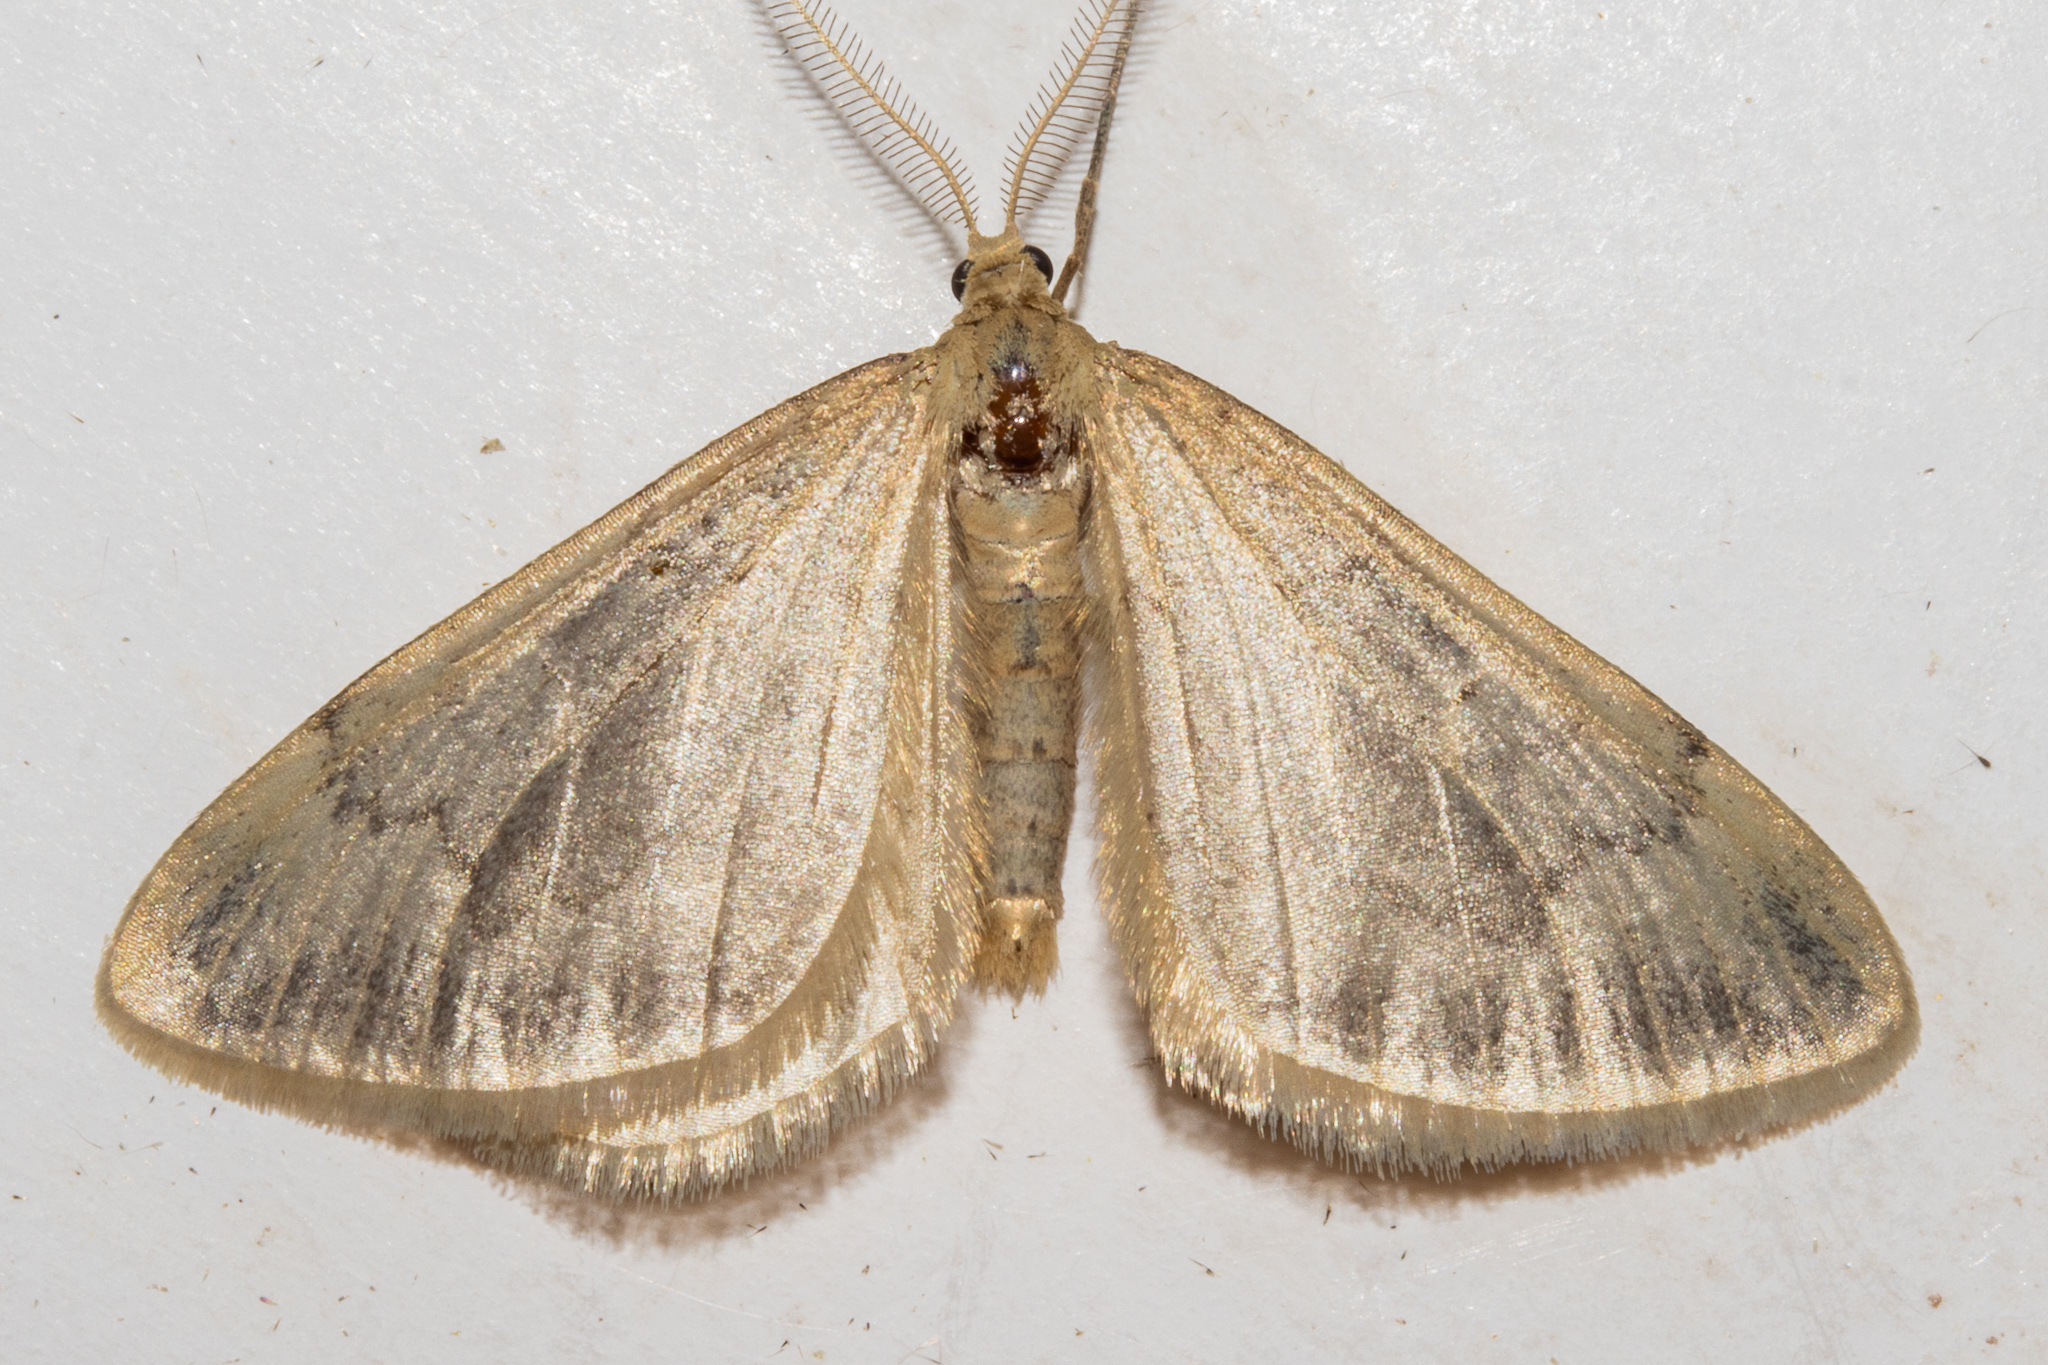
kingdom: Animalia
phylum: Arthropoda
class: Insecta
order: Lepidoptera
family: Geometridae
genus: Asaphodes
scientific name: Asaphodes helias
